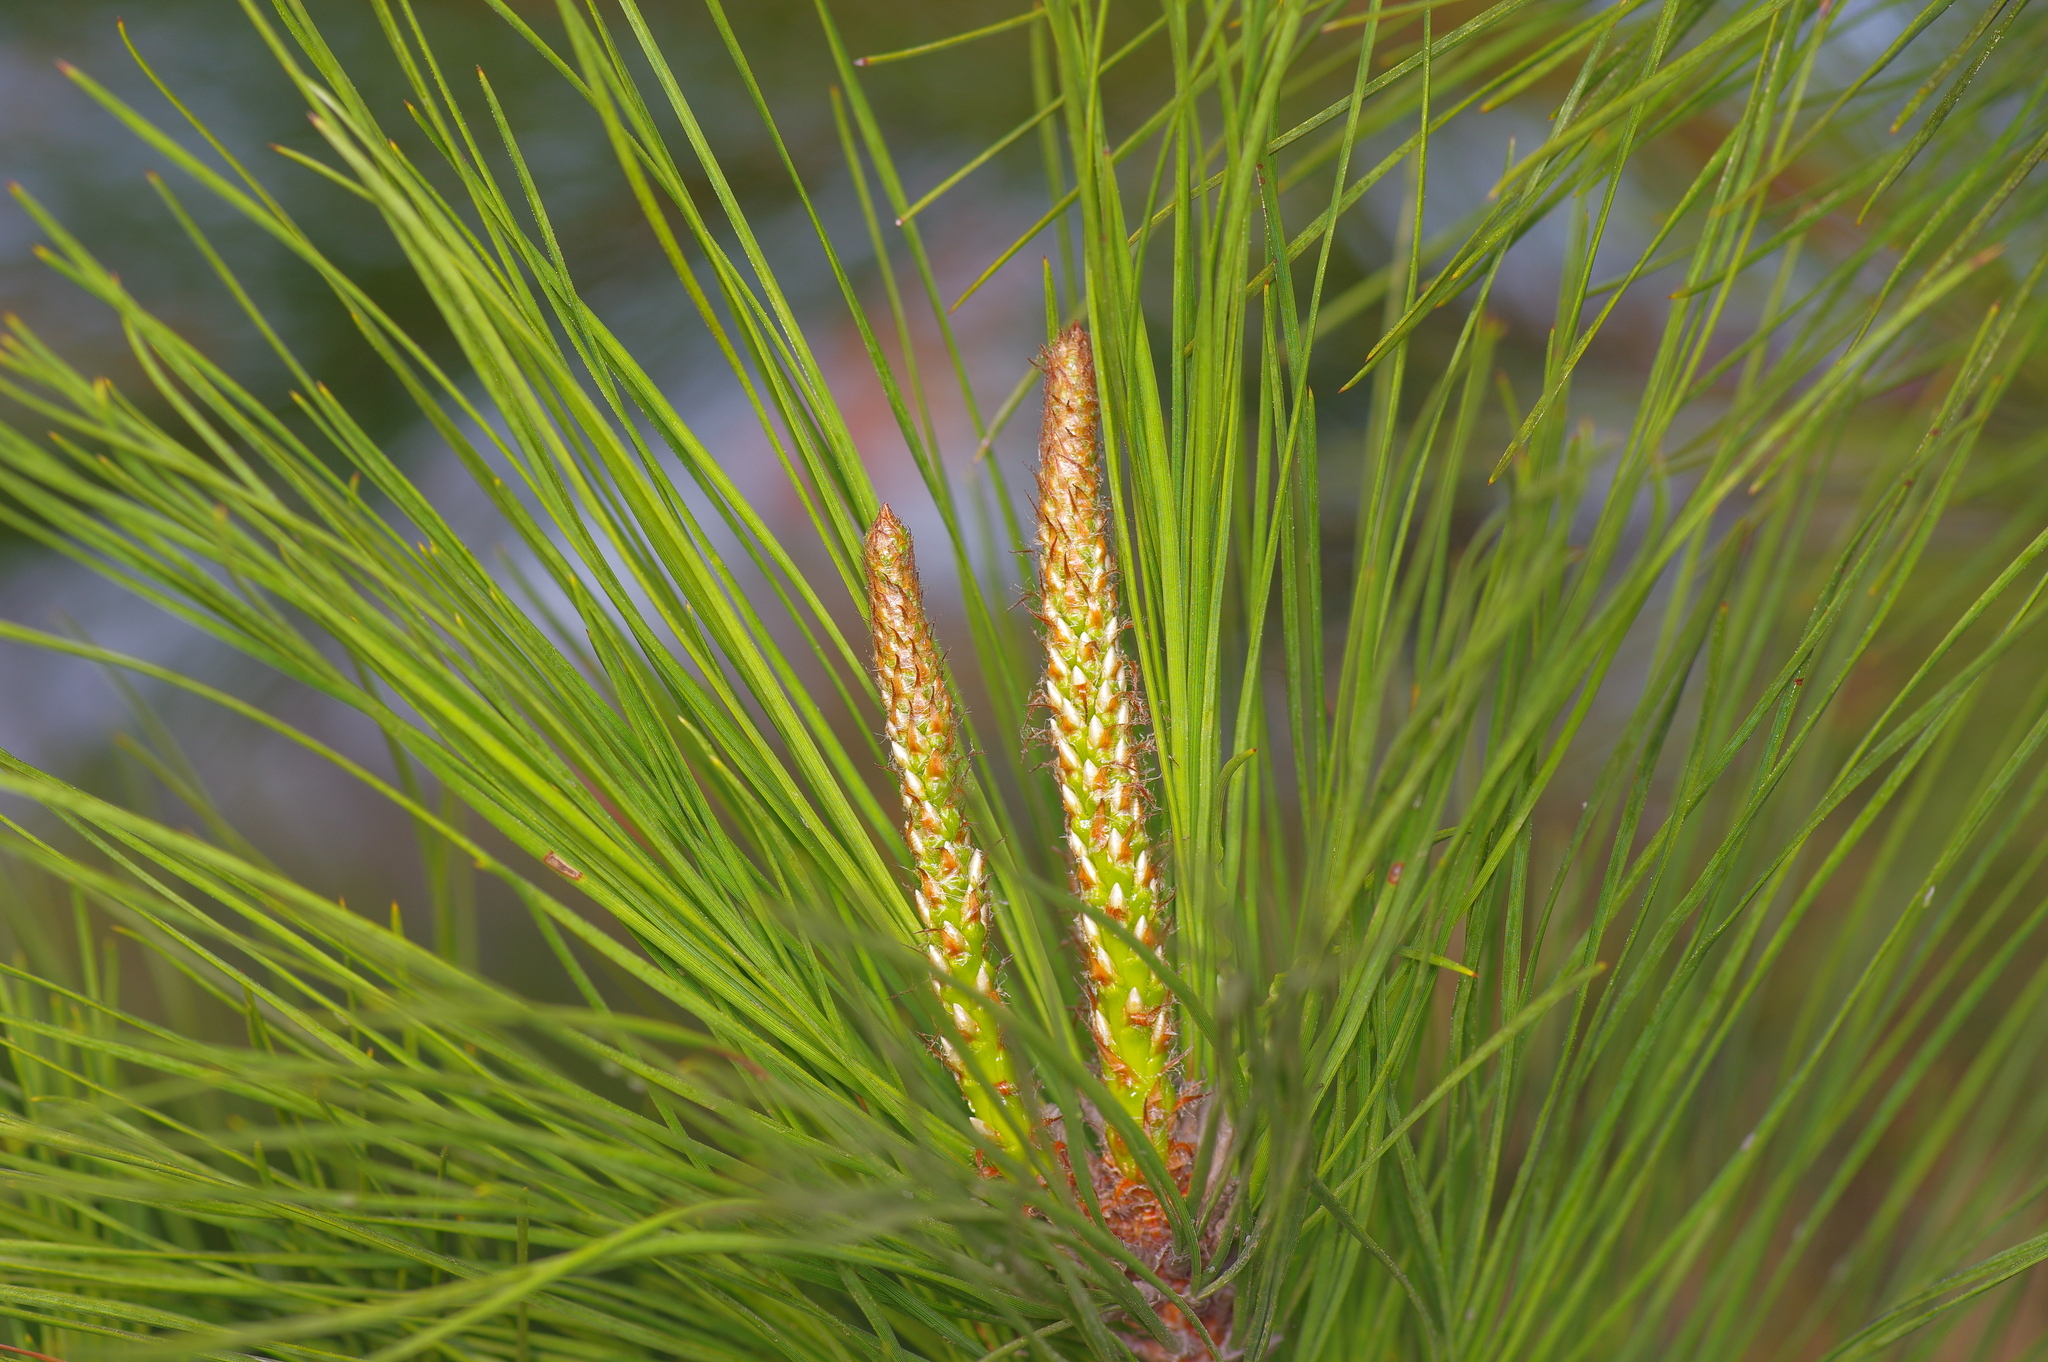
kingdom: Plantae
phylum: Tracheophyta
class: Pinopsida
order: Pinales
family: Pinaceae
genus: Pinus
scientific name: Pinus taeda
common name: Loblolly pine
